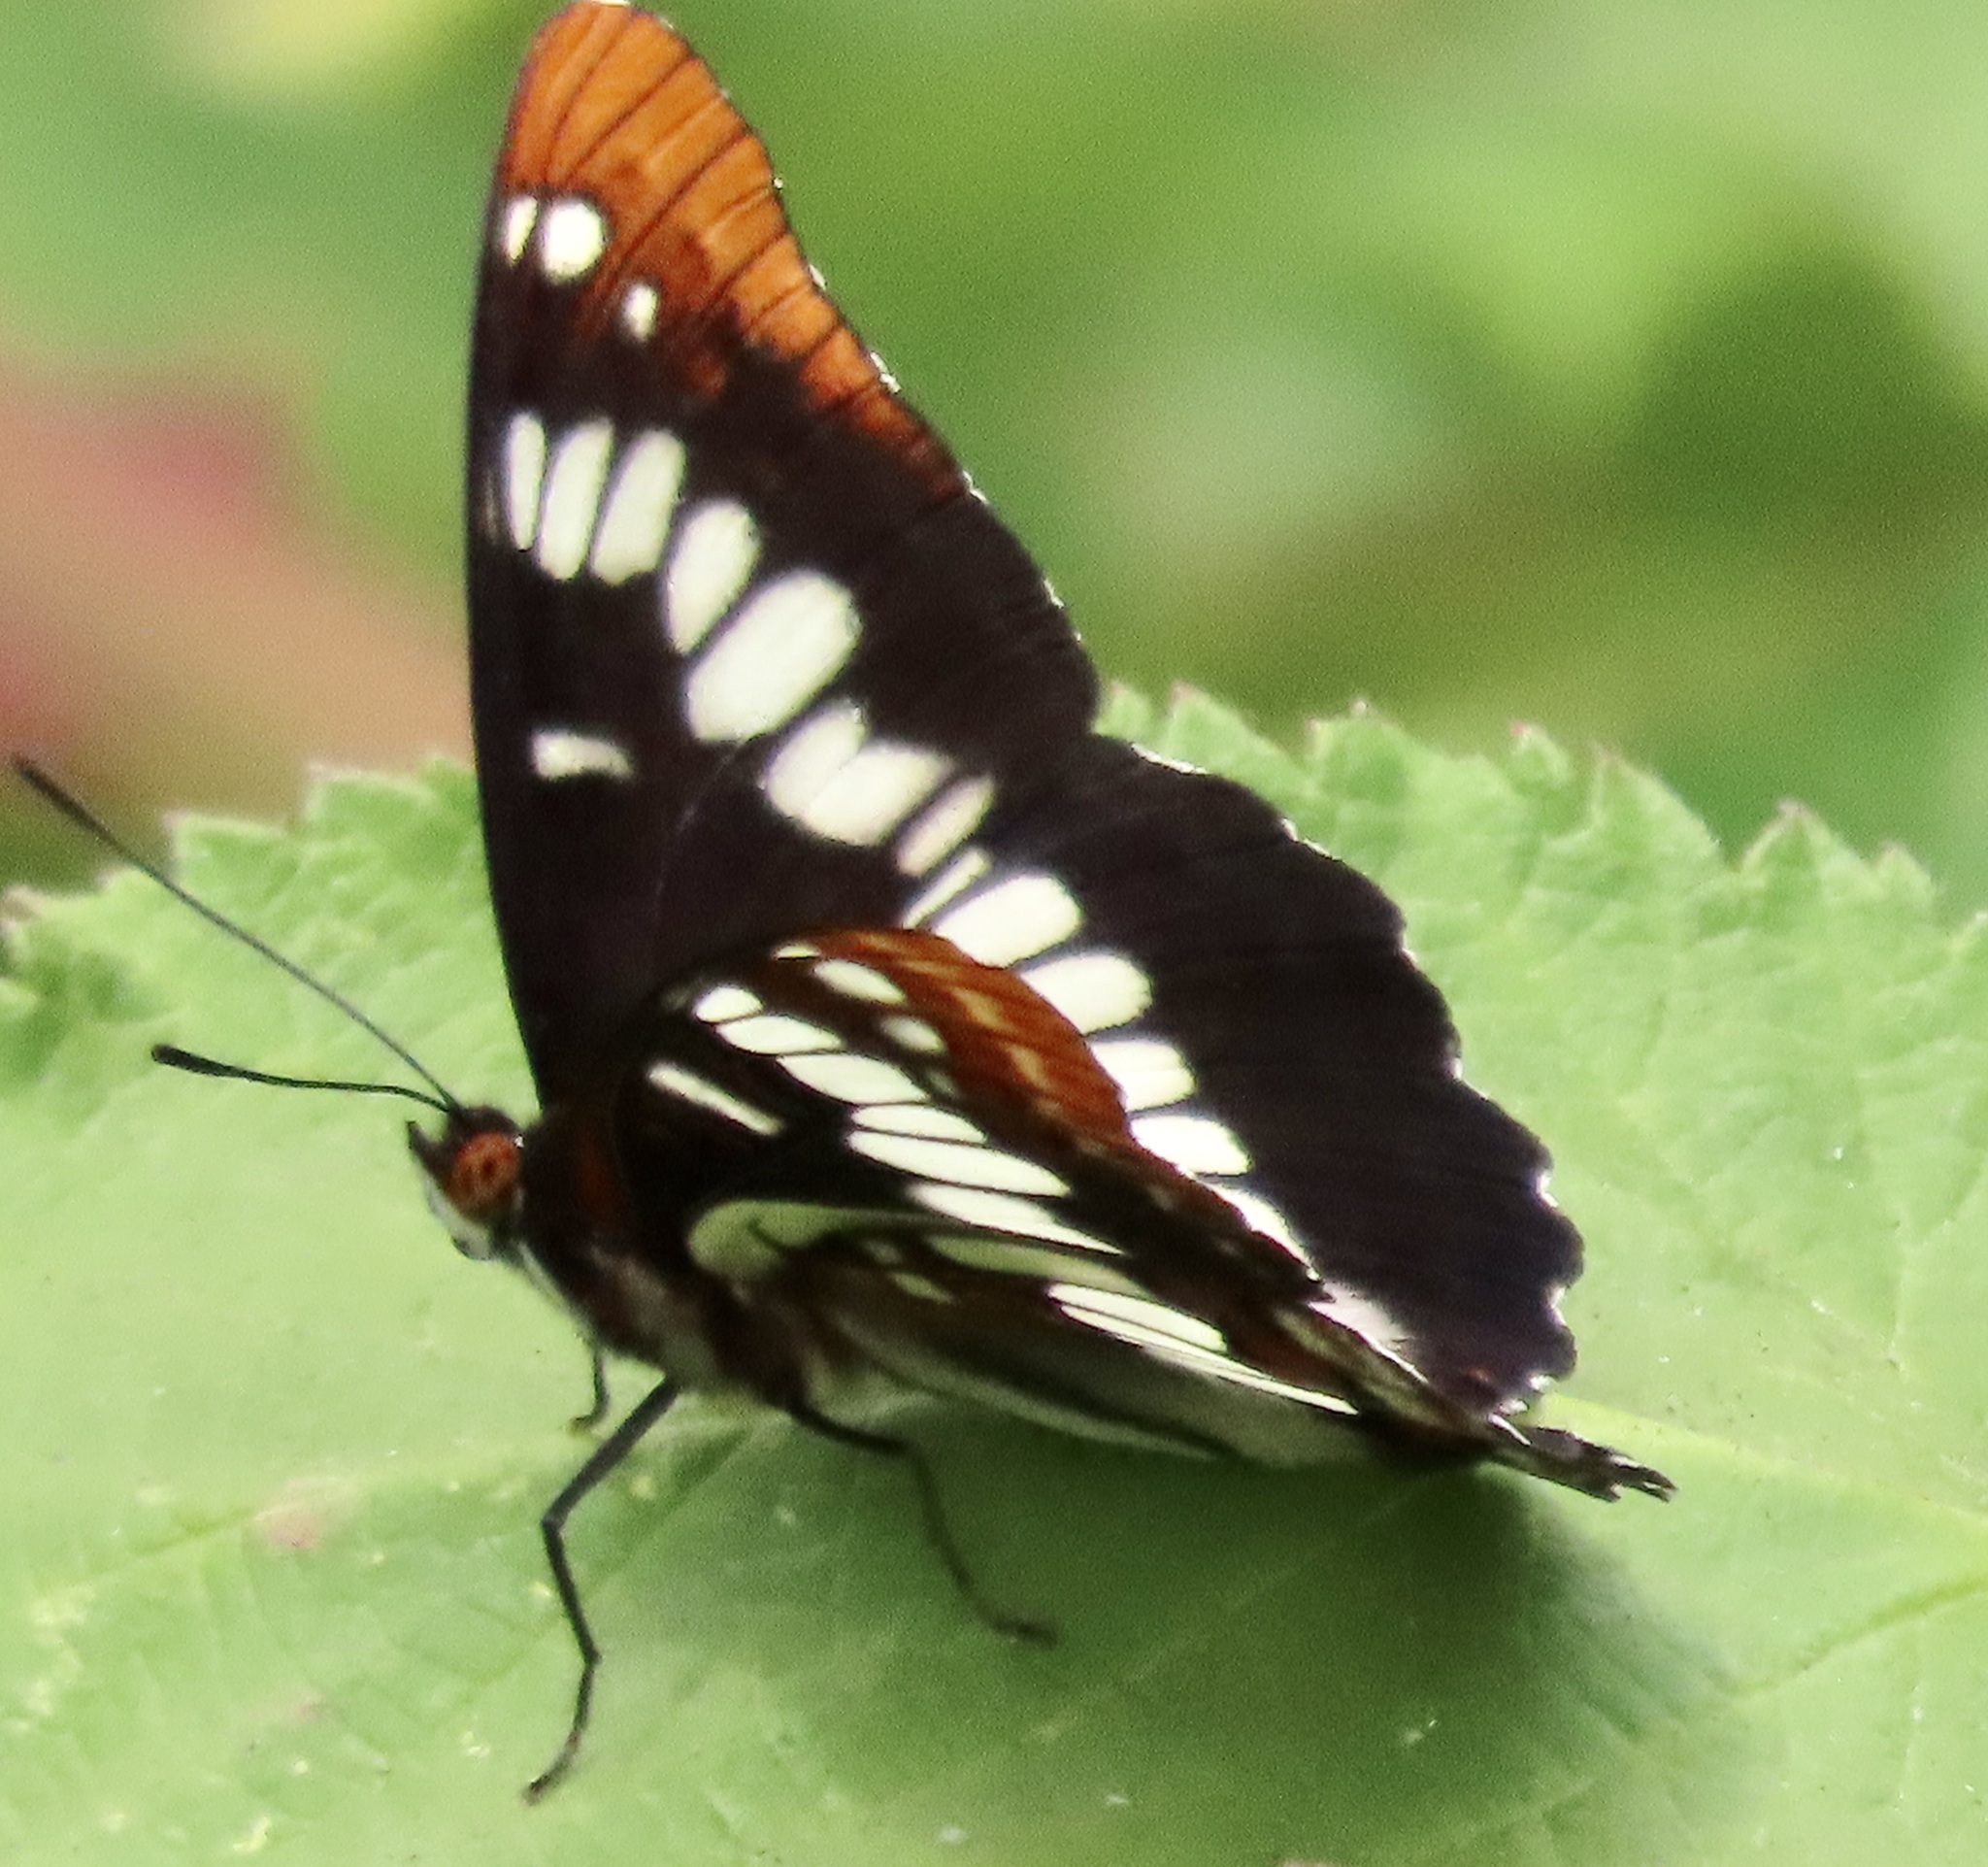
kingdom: Animalia
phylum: Arthropoda
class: Insecta
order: Lepidoptera
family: Nymphalidae
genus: Limenitis
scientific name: Limenitis lorquini
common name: Lorquin's admiral
